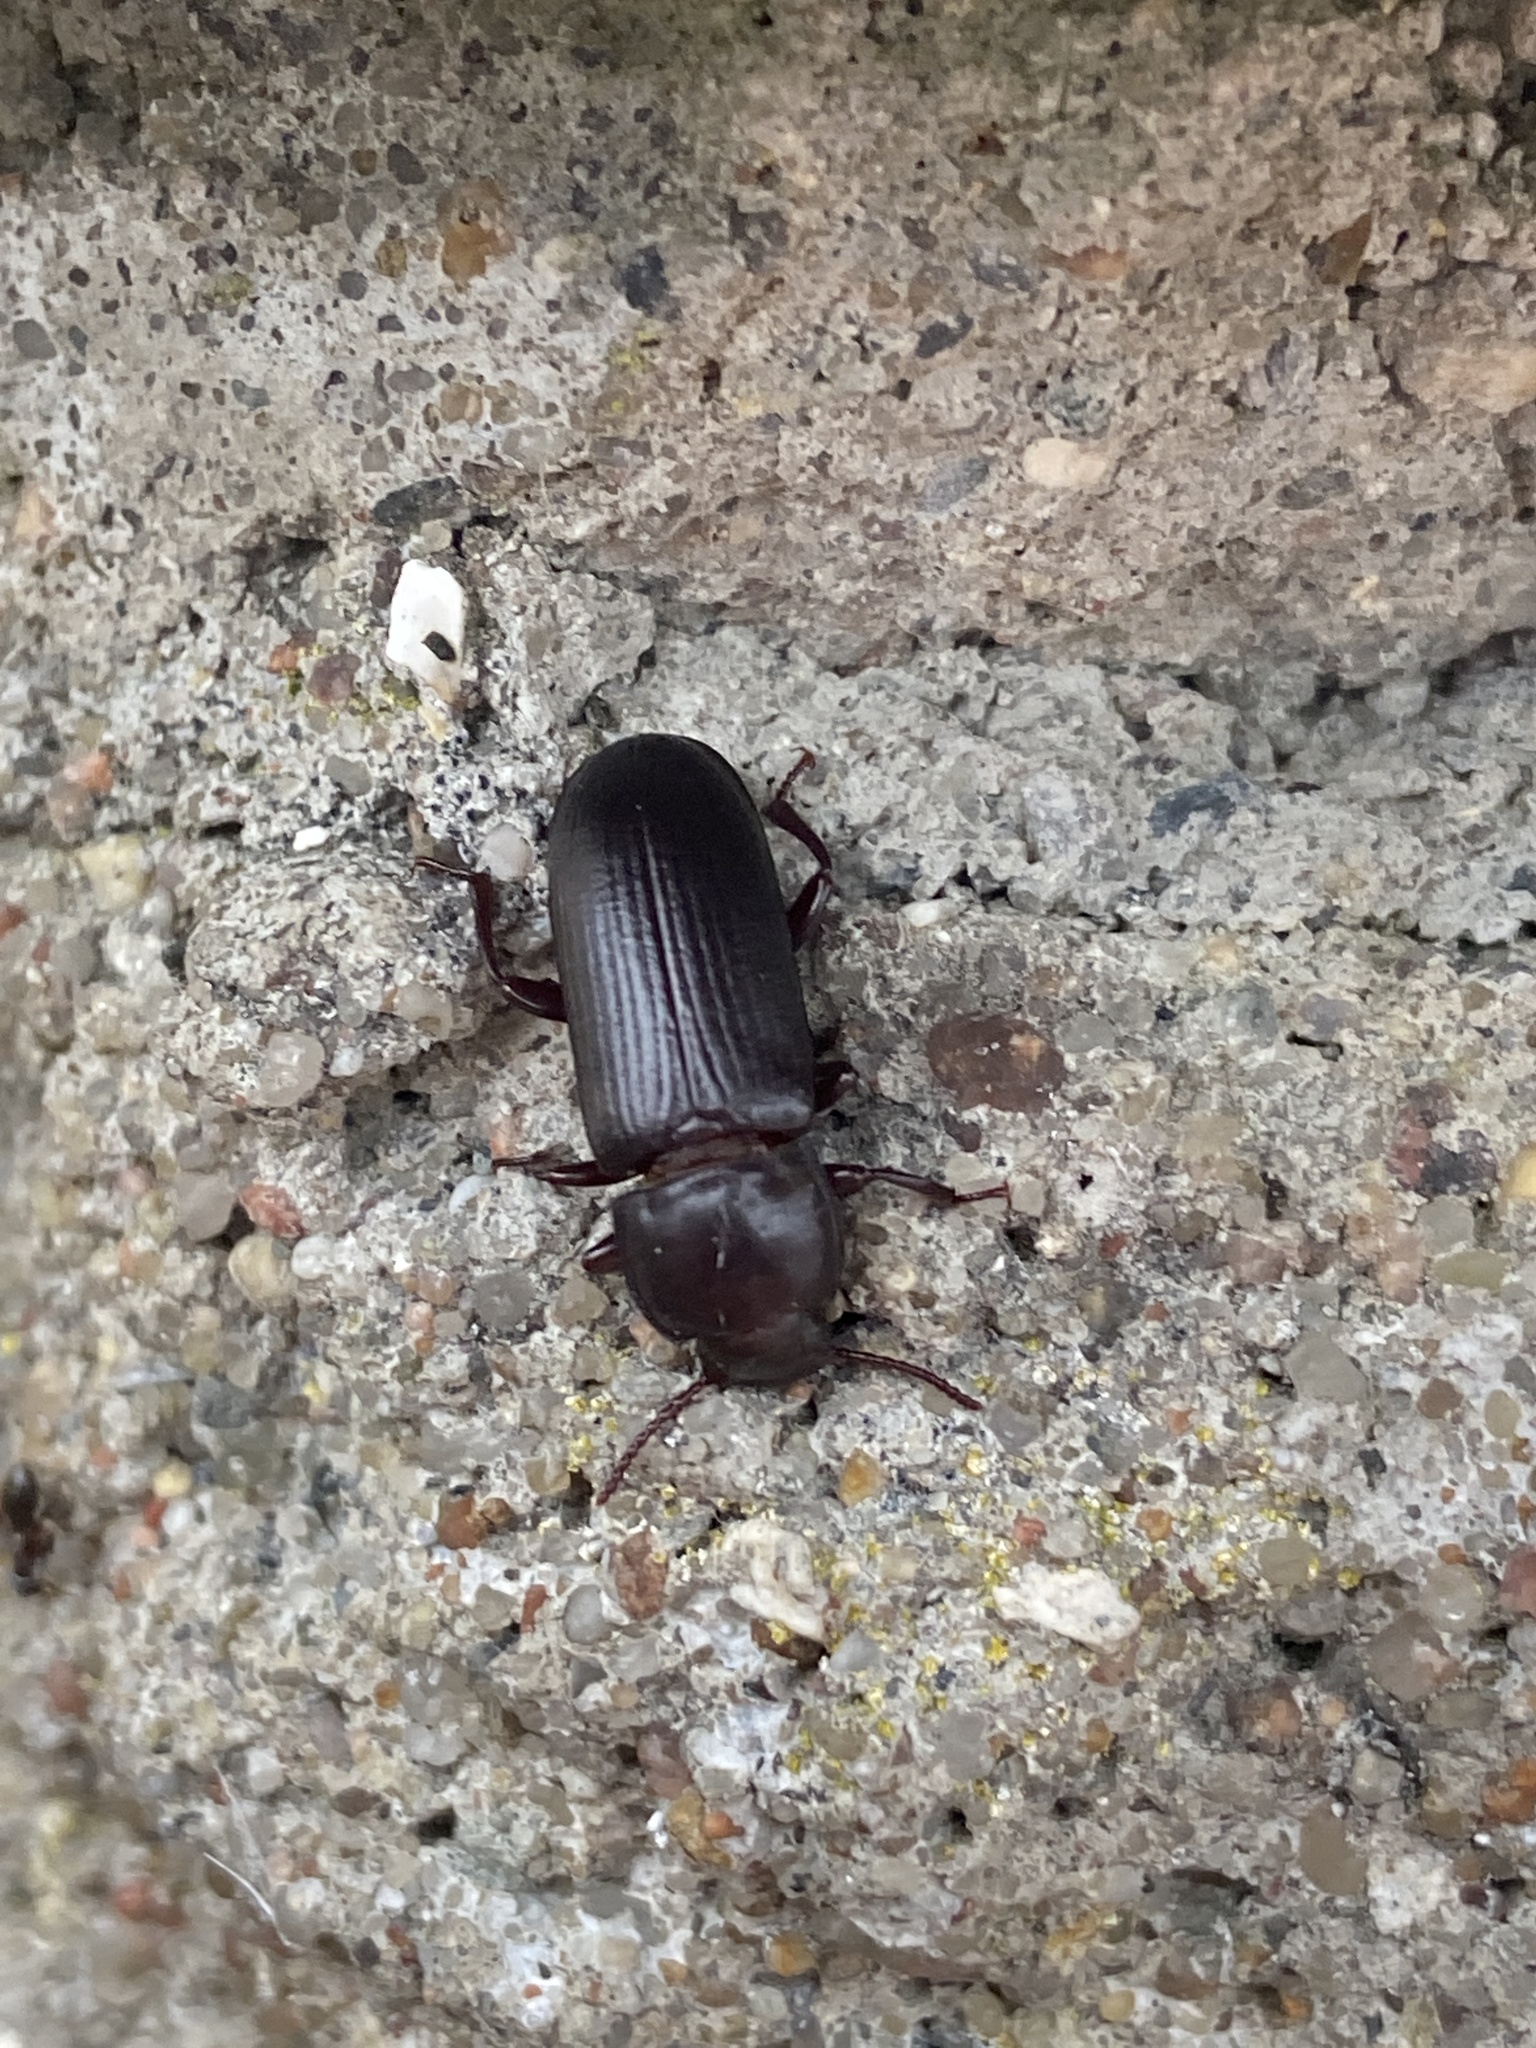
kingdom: Animalia
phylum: Arthropoda
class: Insecta
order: Coleoptera
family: Tenebrionidae
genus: Tenebrio
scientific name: Tenebrio molitor
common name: Hardback beetle
